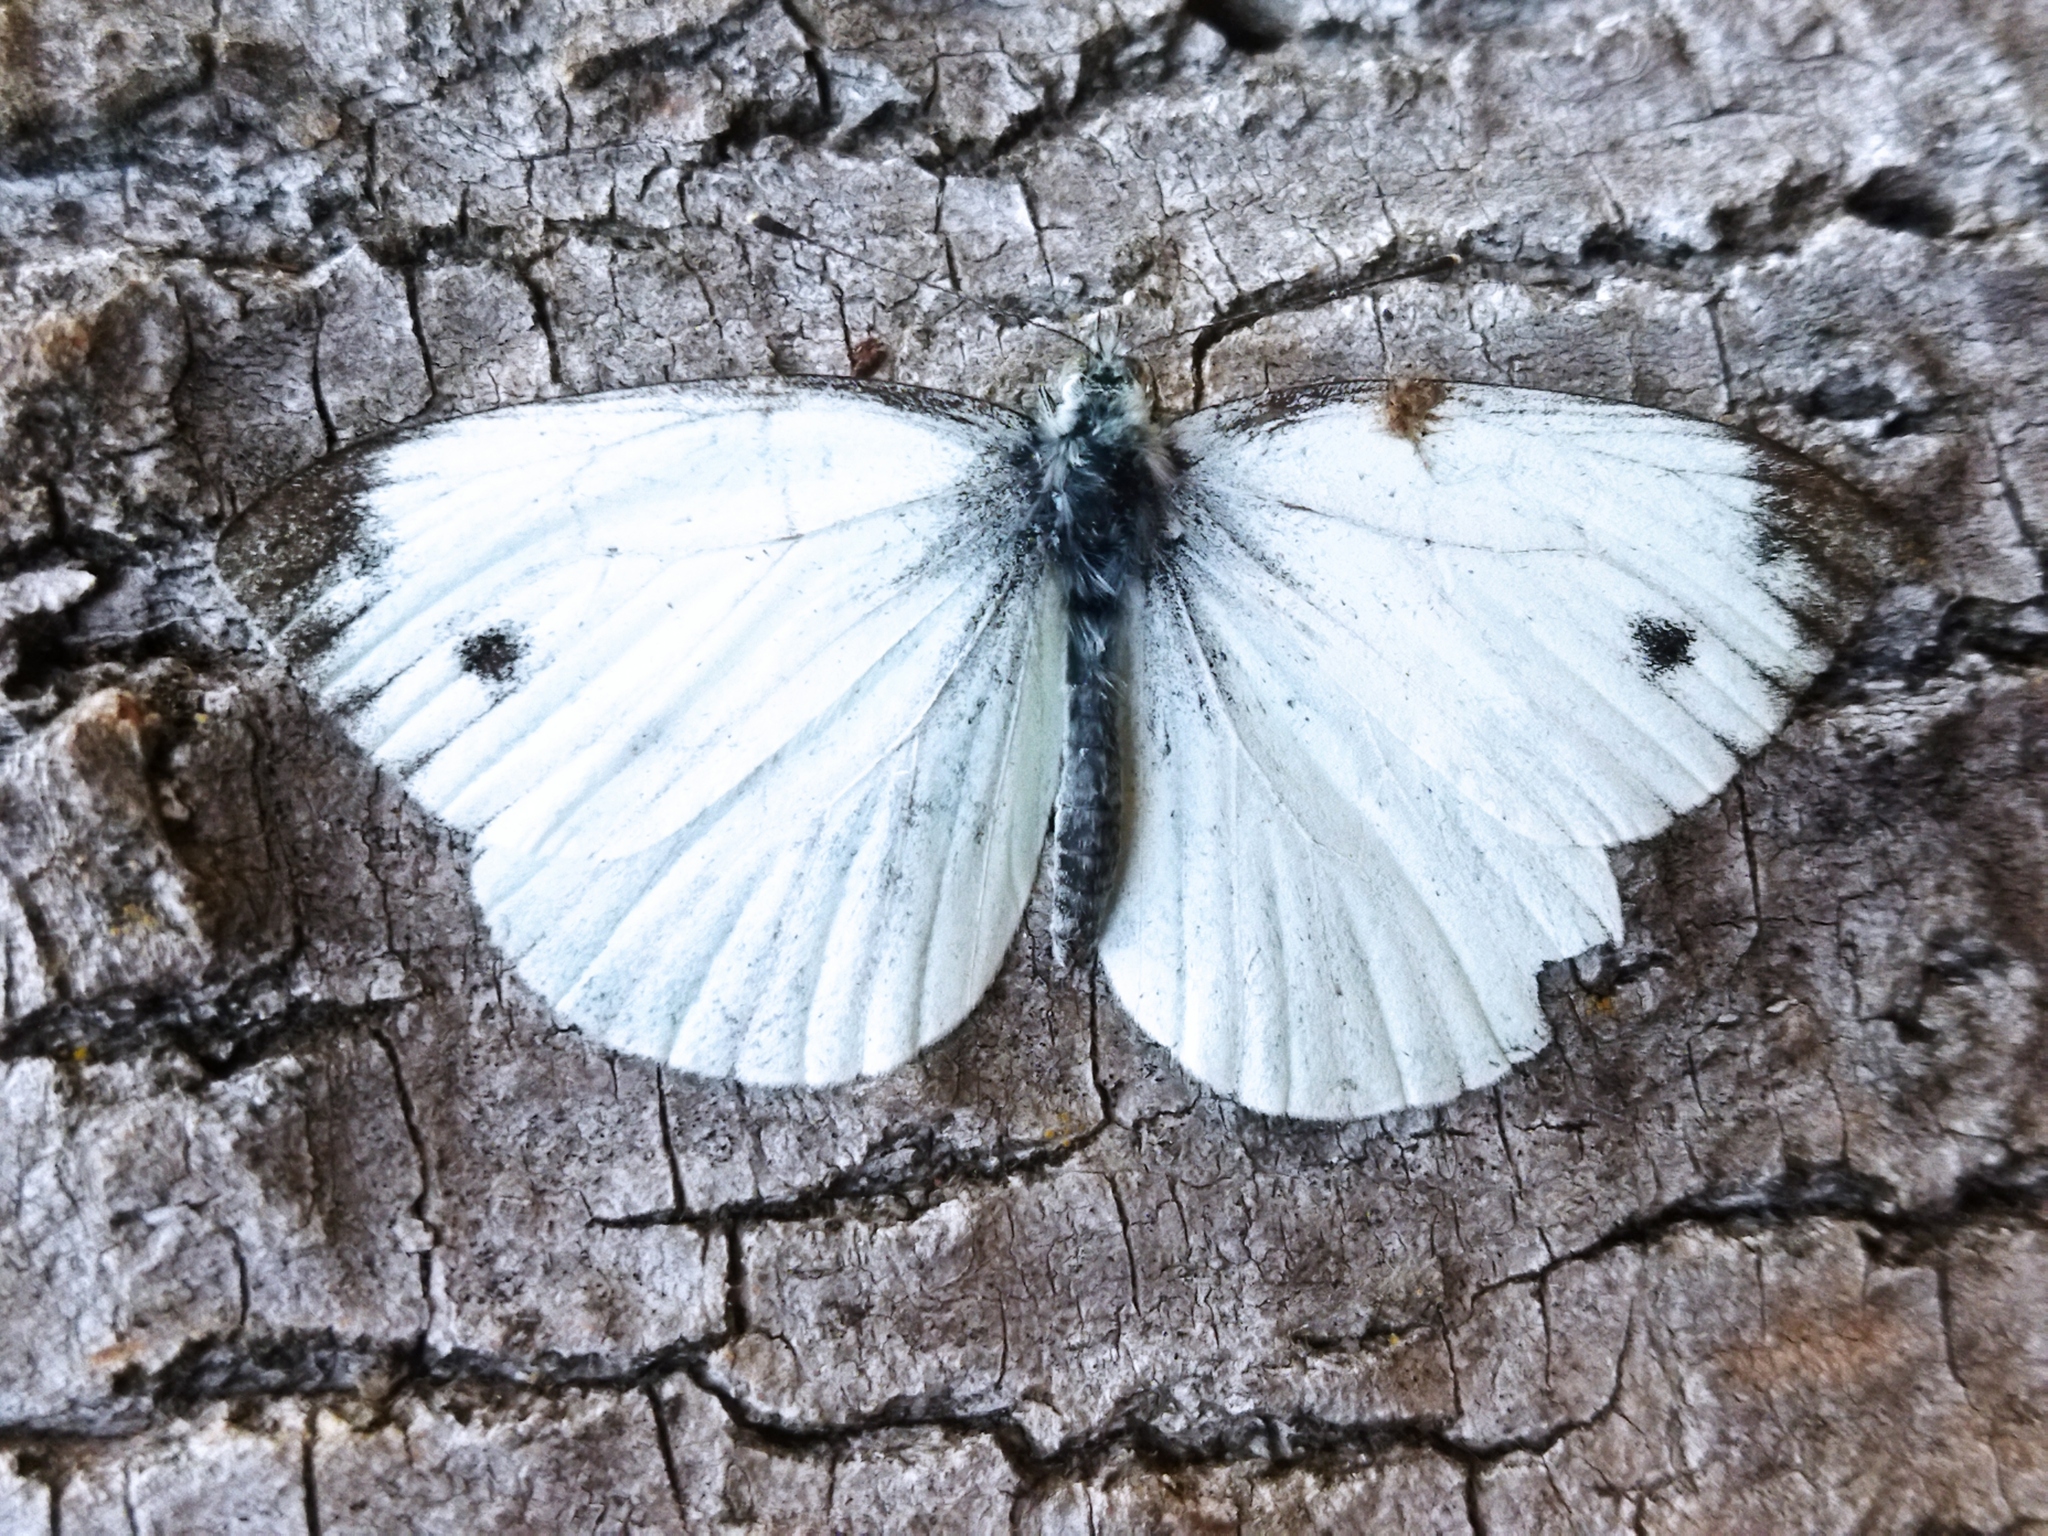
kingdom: Animalia
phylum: Arthropoda
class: Insecta
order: Lepidoptera
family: Pieridae
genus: Pieris
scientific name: Pieris napi
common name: Green-veined white
